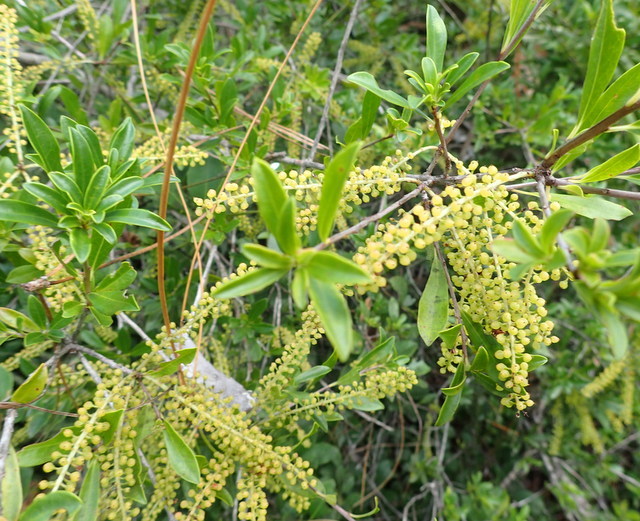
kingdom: Plantae
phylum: Tracheophyta
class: Magnoliopsida
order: Ericales
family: Cyrillaceae
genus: Cyrilla
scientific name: Cyrilla racemiflora
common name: Black titi
